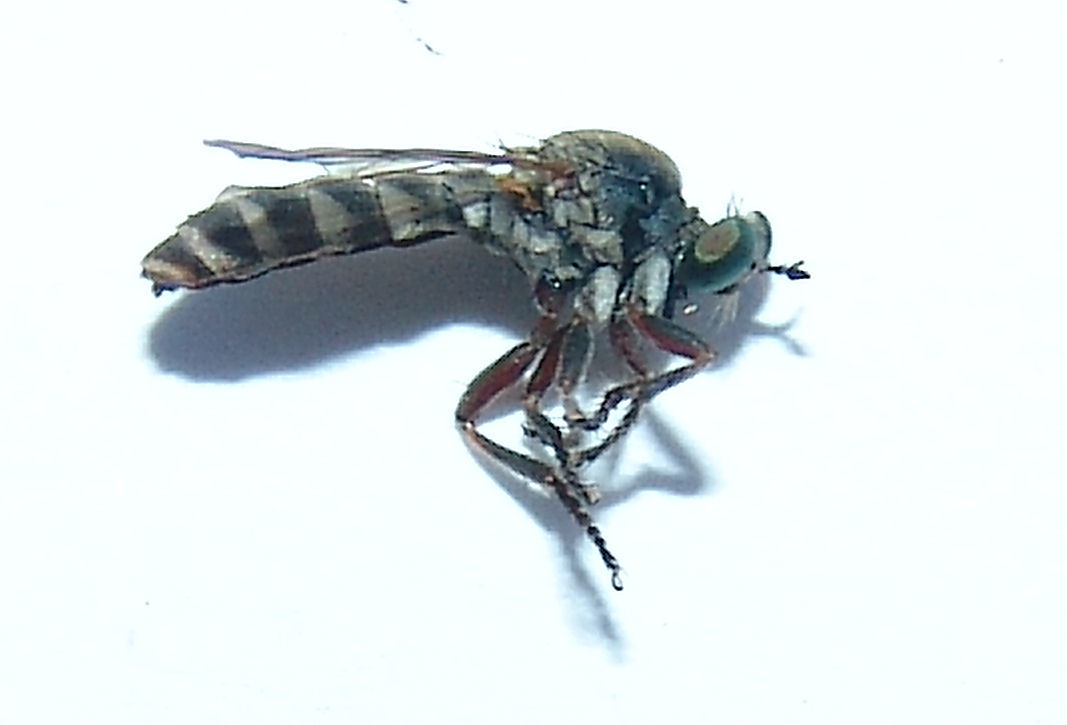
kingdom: Animalia
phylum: Arthropoda
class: Insecta
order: Diptera
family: Asilidae
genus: Psilocurus
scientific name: Psilocurus birdi
